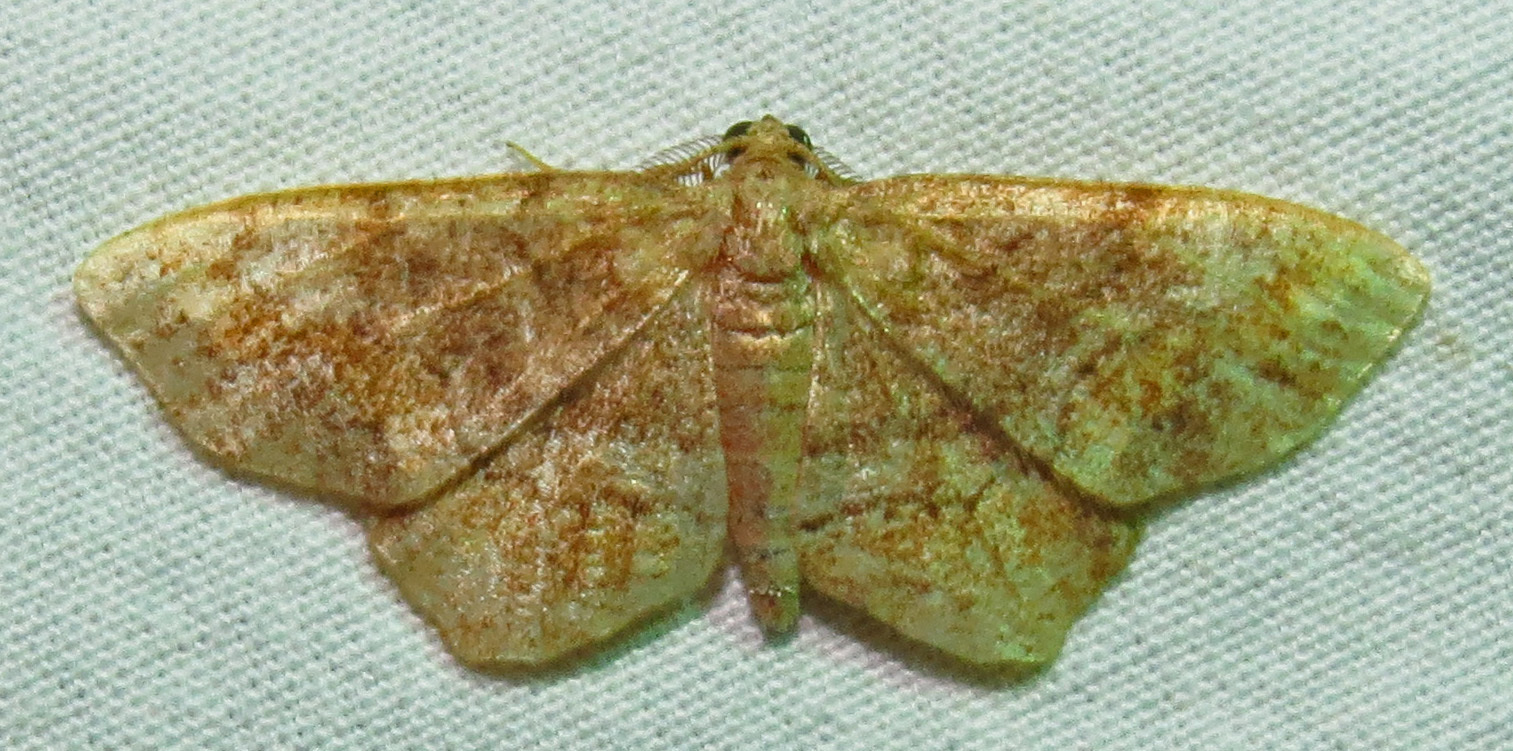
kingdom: Animalia
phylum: Arthropoda
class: Insecta
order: Lepidoptera
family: Geometridae
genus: Hypagyrtis
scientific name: Hypagyrtis unipunctata
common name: One-spotted variant
